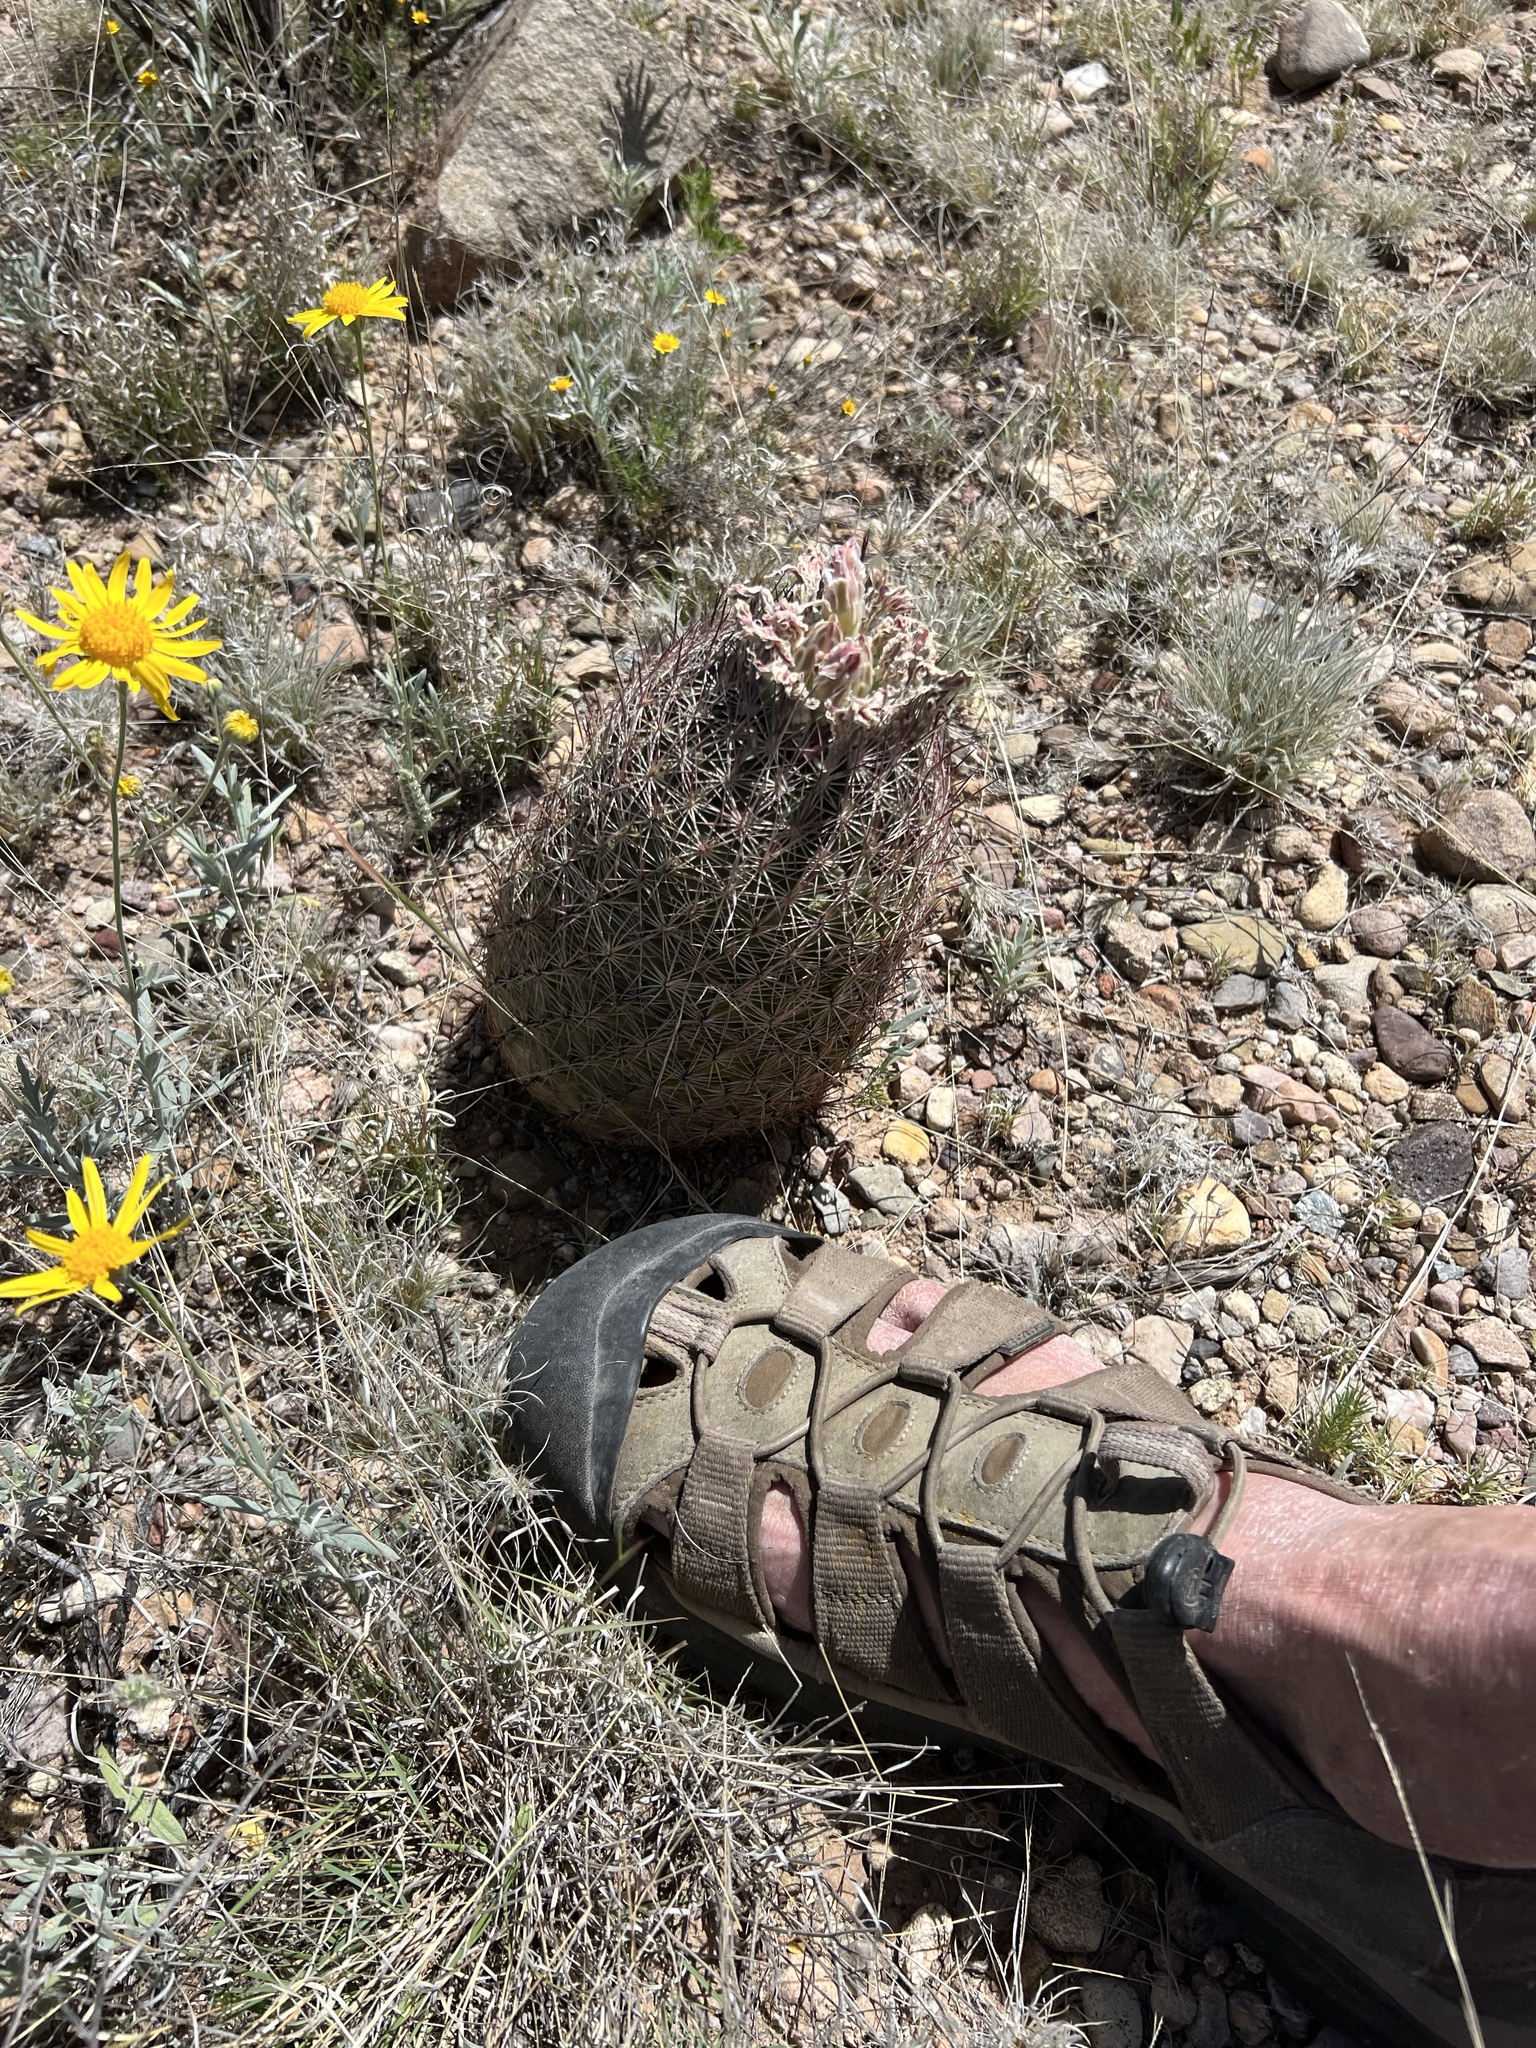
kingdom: Plantae
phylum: Tracheophyta
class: Magnoliopsida
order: Caryophyllales
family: Cactaceae
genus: Sclerocactus
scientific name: Sclerocactus johnsonii
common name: Eight-spine fishhook cactus
